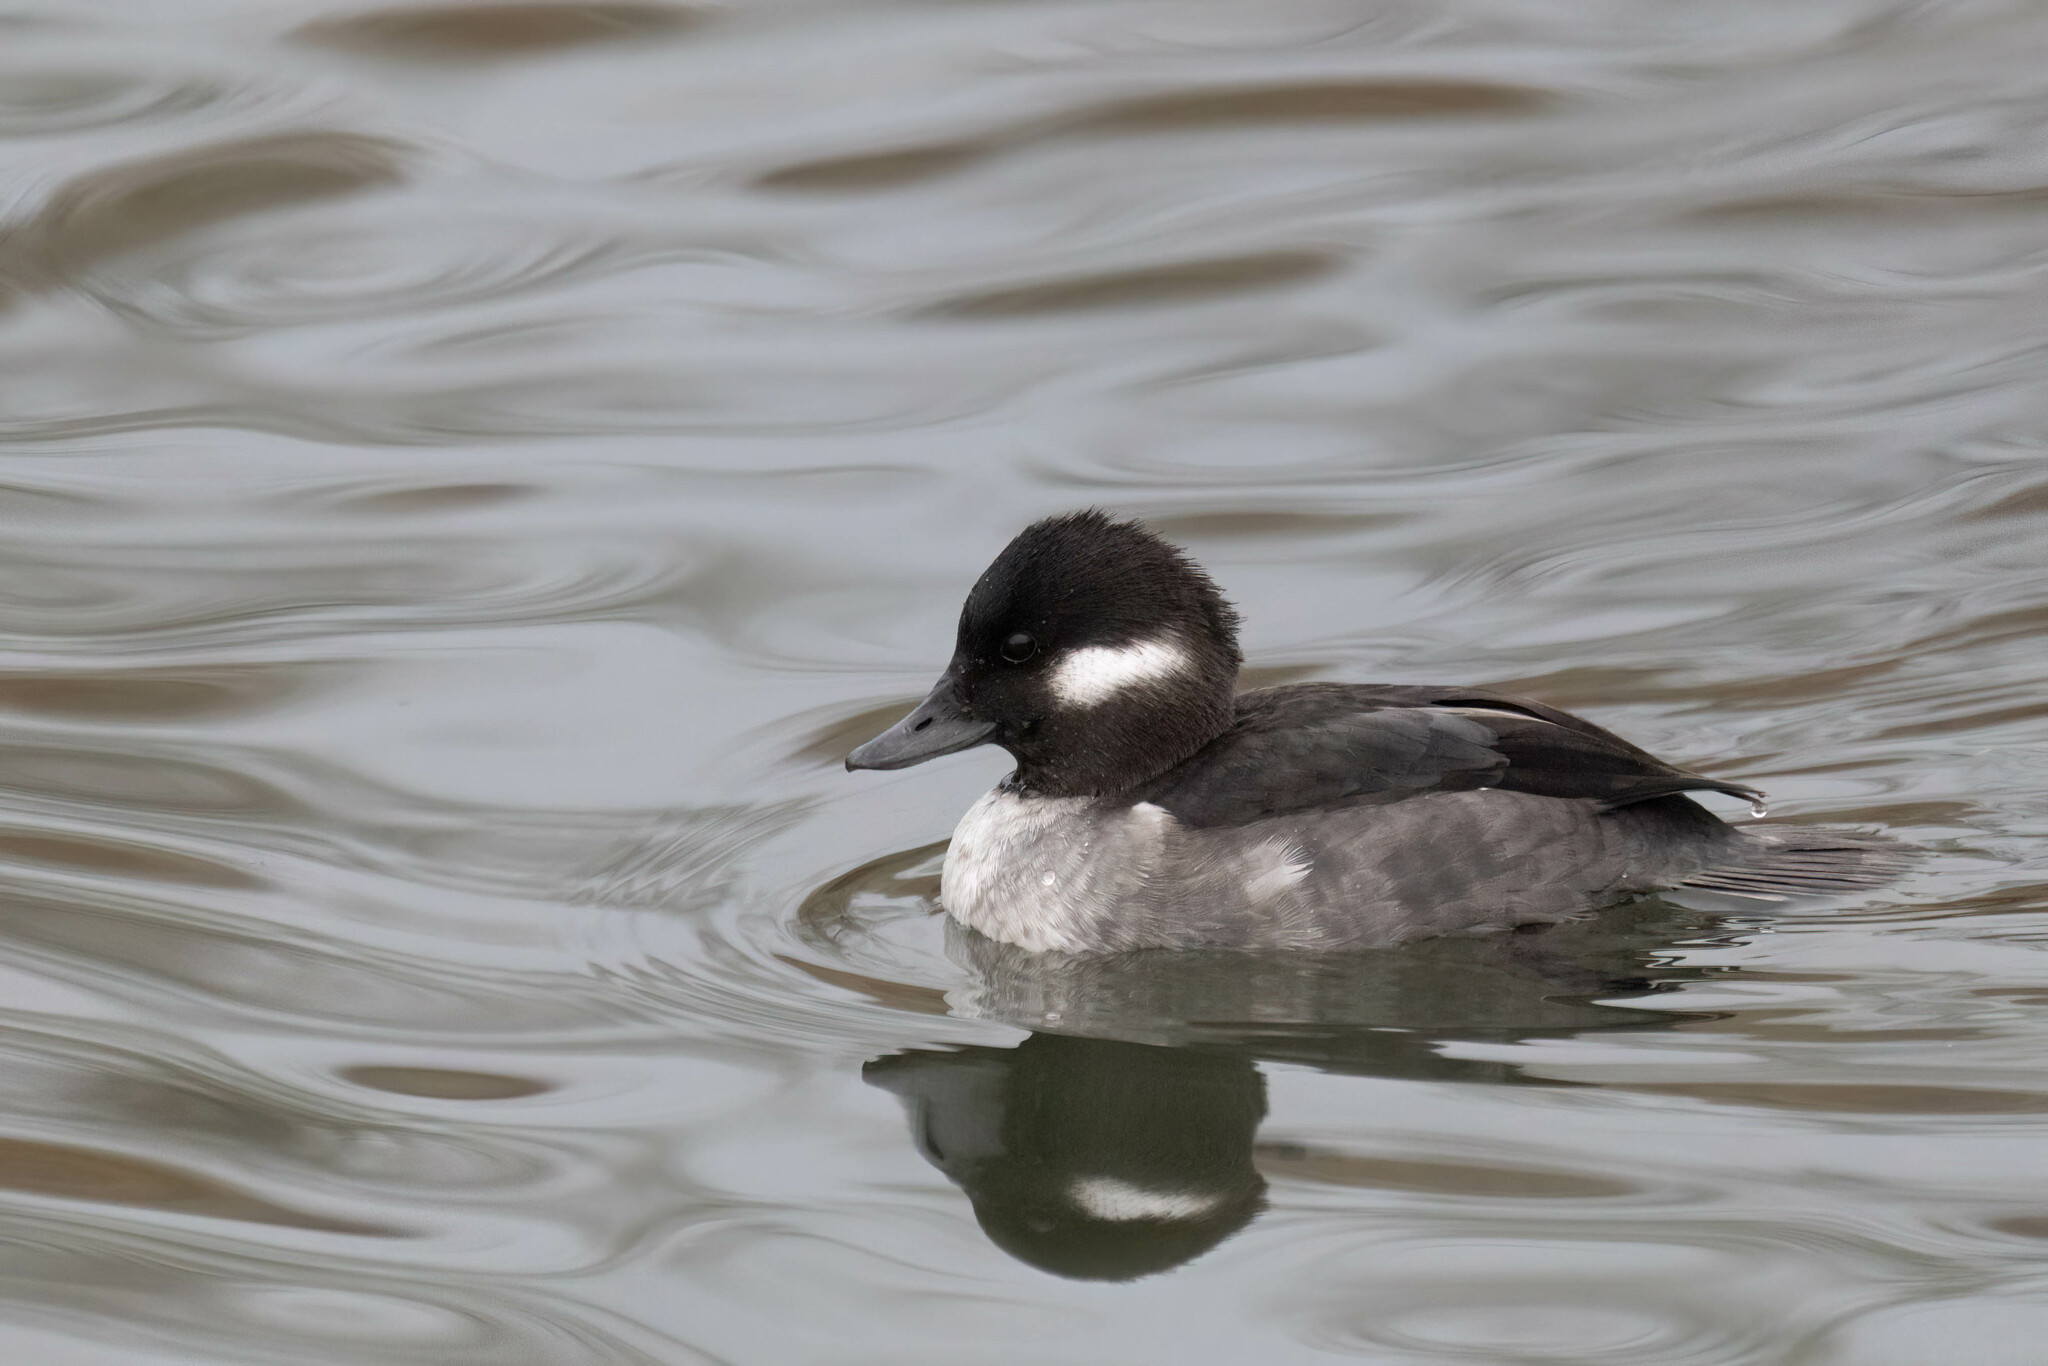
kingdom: Animalia
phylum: Chordata
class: Aves
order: Anseriformes
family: Anatidae
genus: Bucephala
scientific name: Bucephala albeola
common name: Bufflehead
